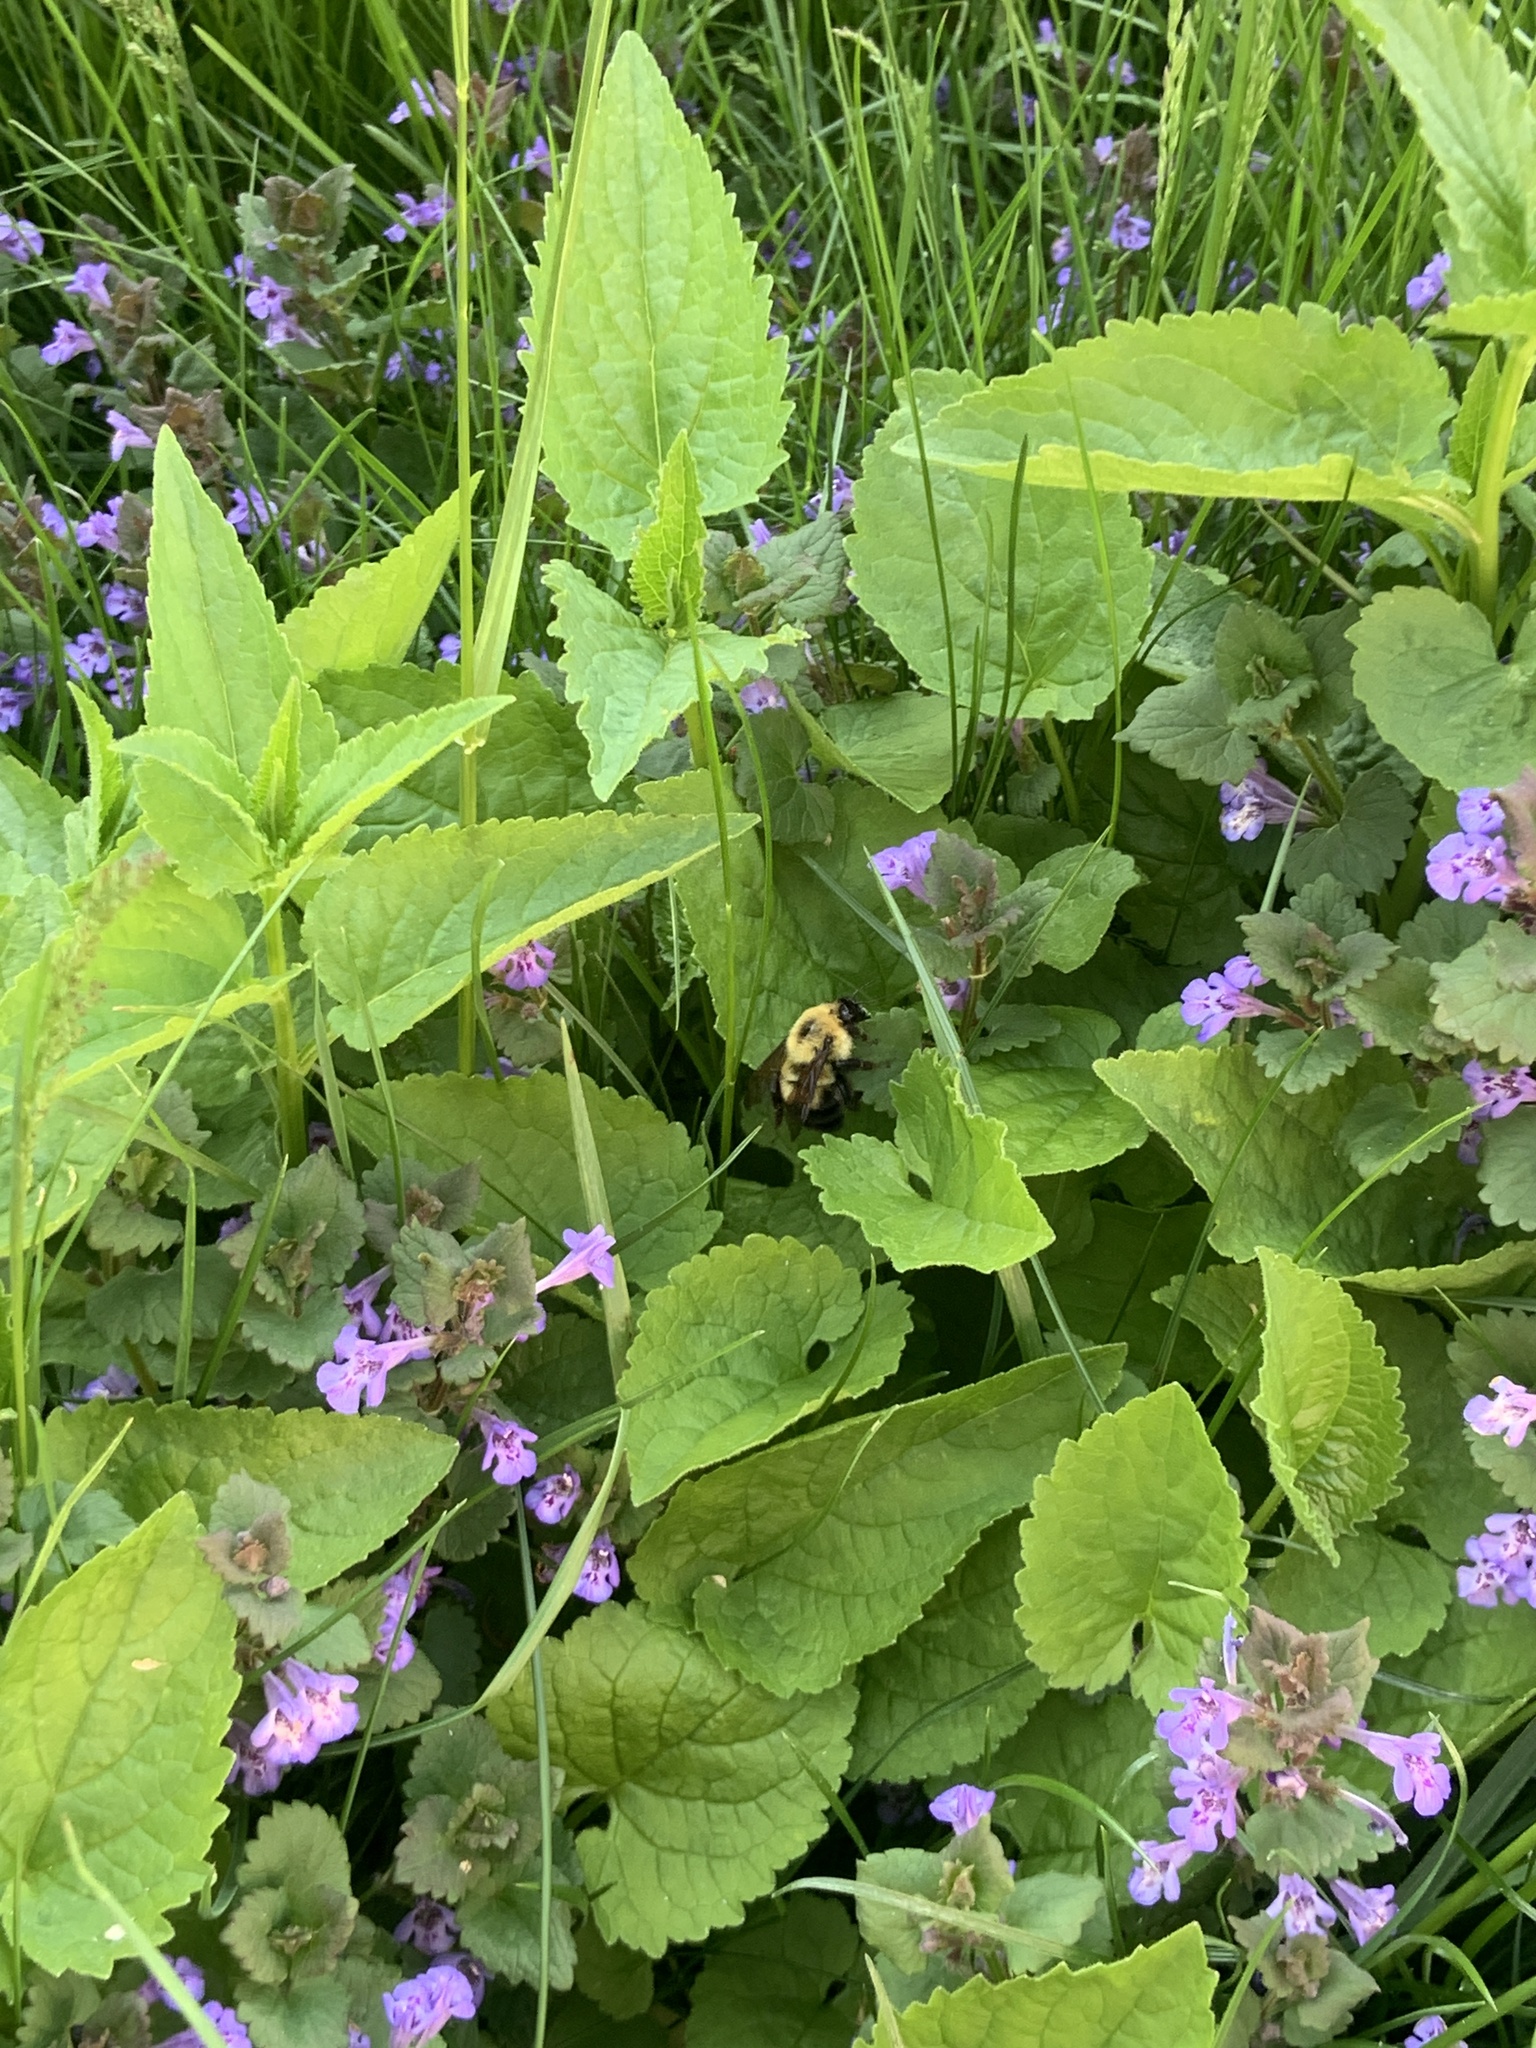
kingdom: Animalia
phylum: Arthropoda
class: Insecta
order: Hymenoptera
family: Apidae
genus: Bombus
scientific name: Bombus bimaculatus
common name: Two-spotted bumble bee
